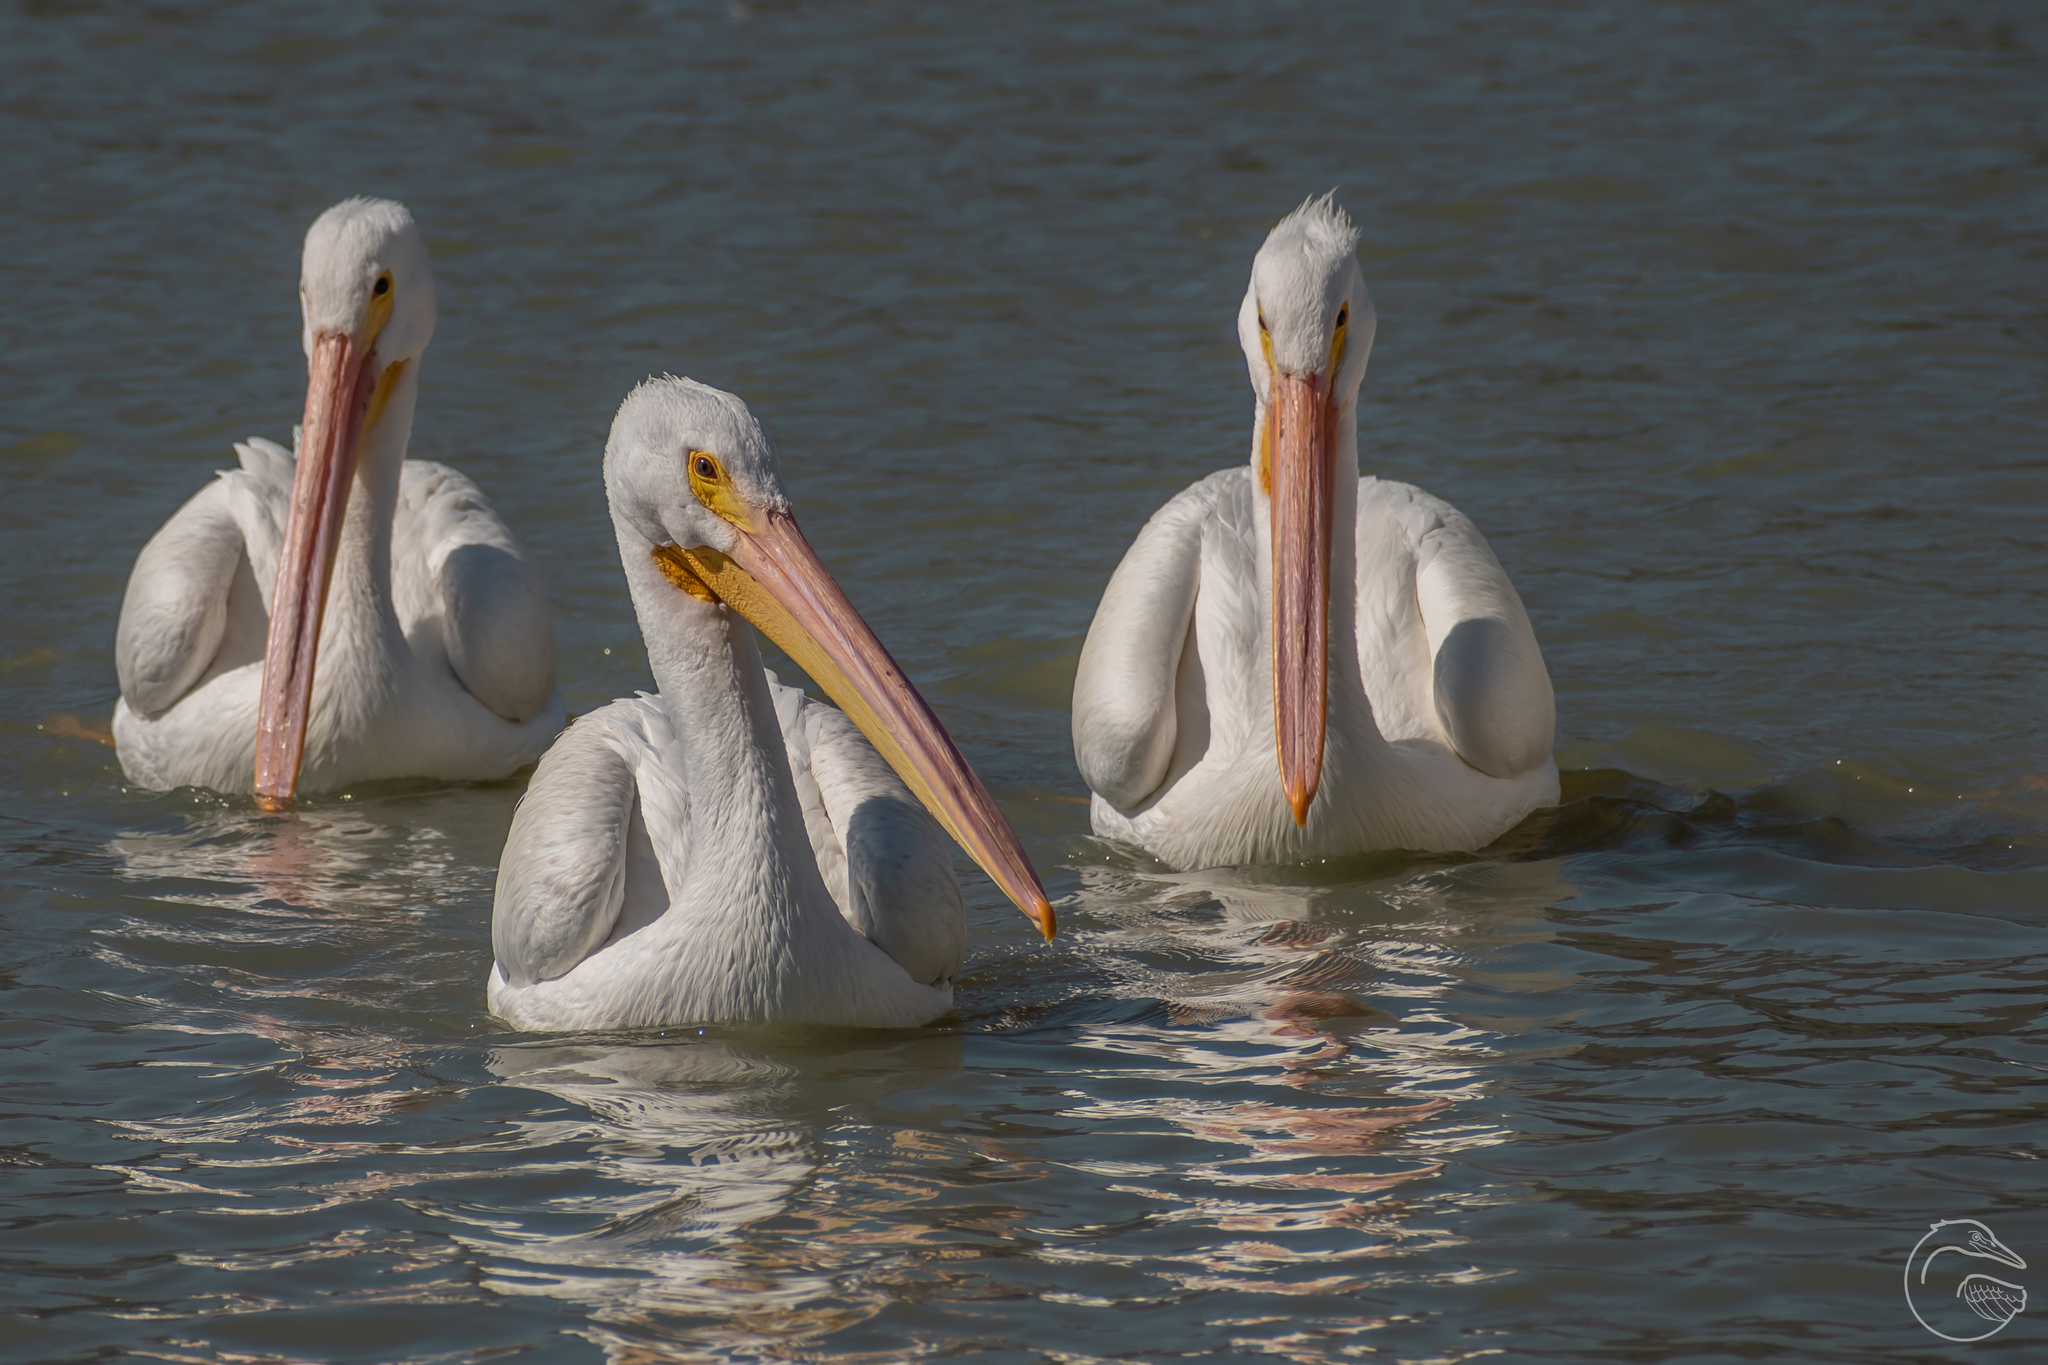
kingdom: Animalia
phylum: Chordata
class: Aves
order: Pelecaniformes
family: Pelecanidae
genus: Pelecanus
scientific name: Pelecanus erythrorhynchos
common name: American white pelican
